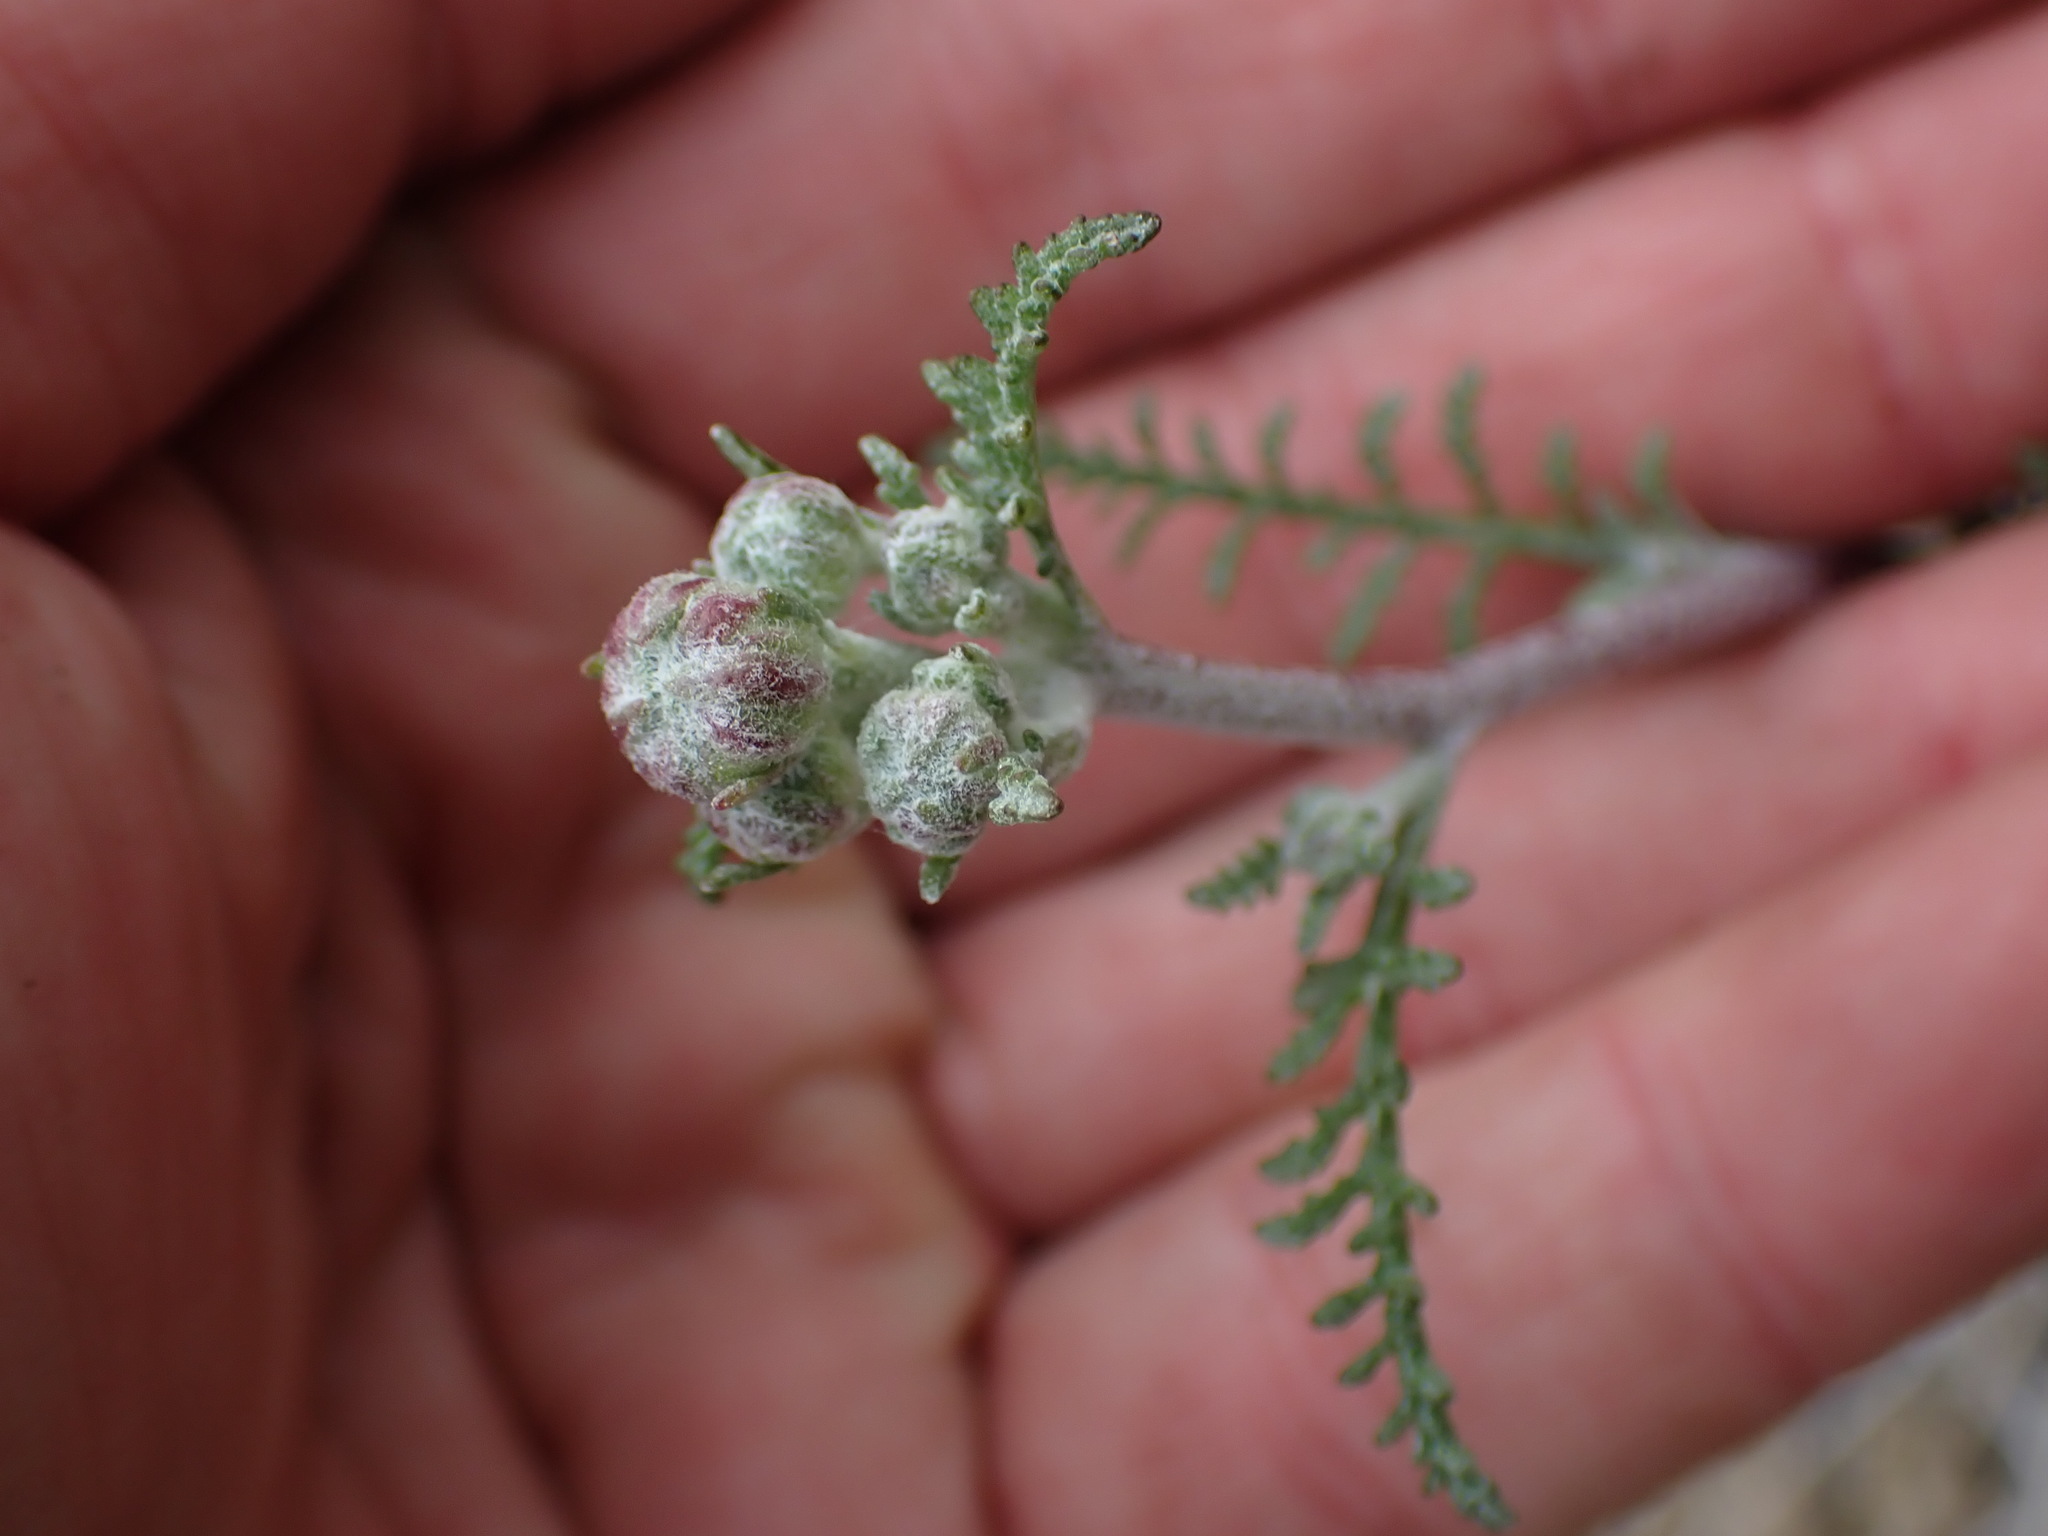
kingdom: Plantae
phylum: Tracheophyta
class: Magnoliopsida
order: Asterales
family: Asteraceae
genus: Chaenactis
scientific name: Chaenactis douglasii
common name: Hoary pincushion
